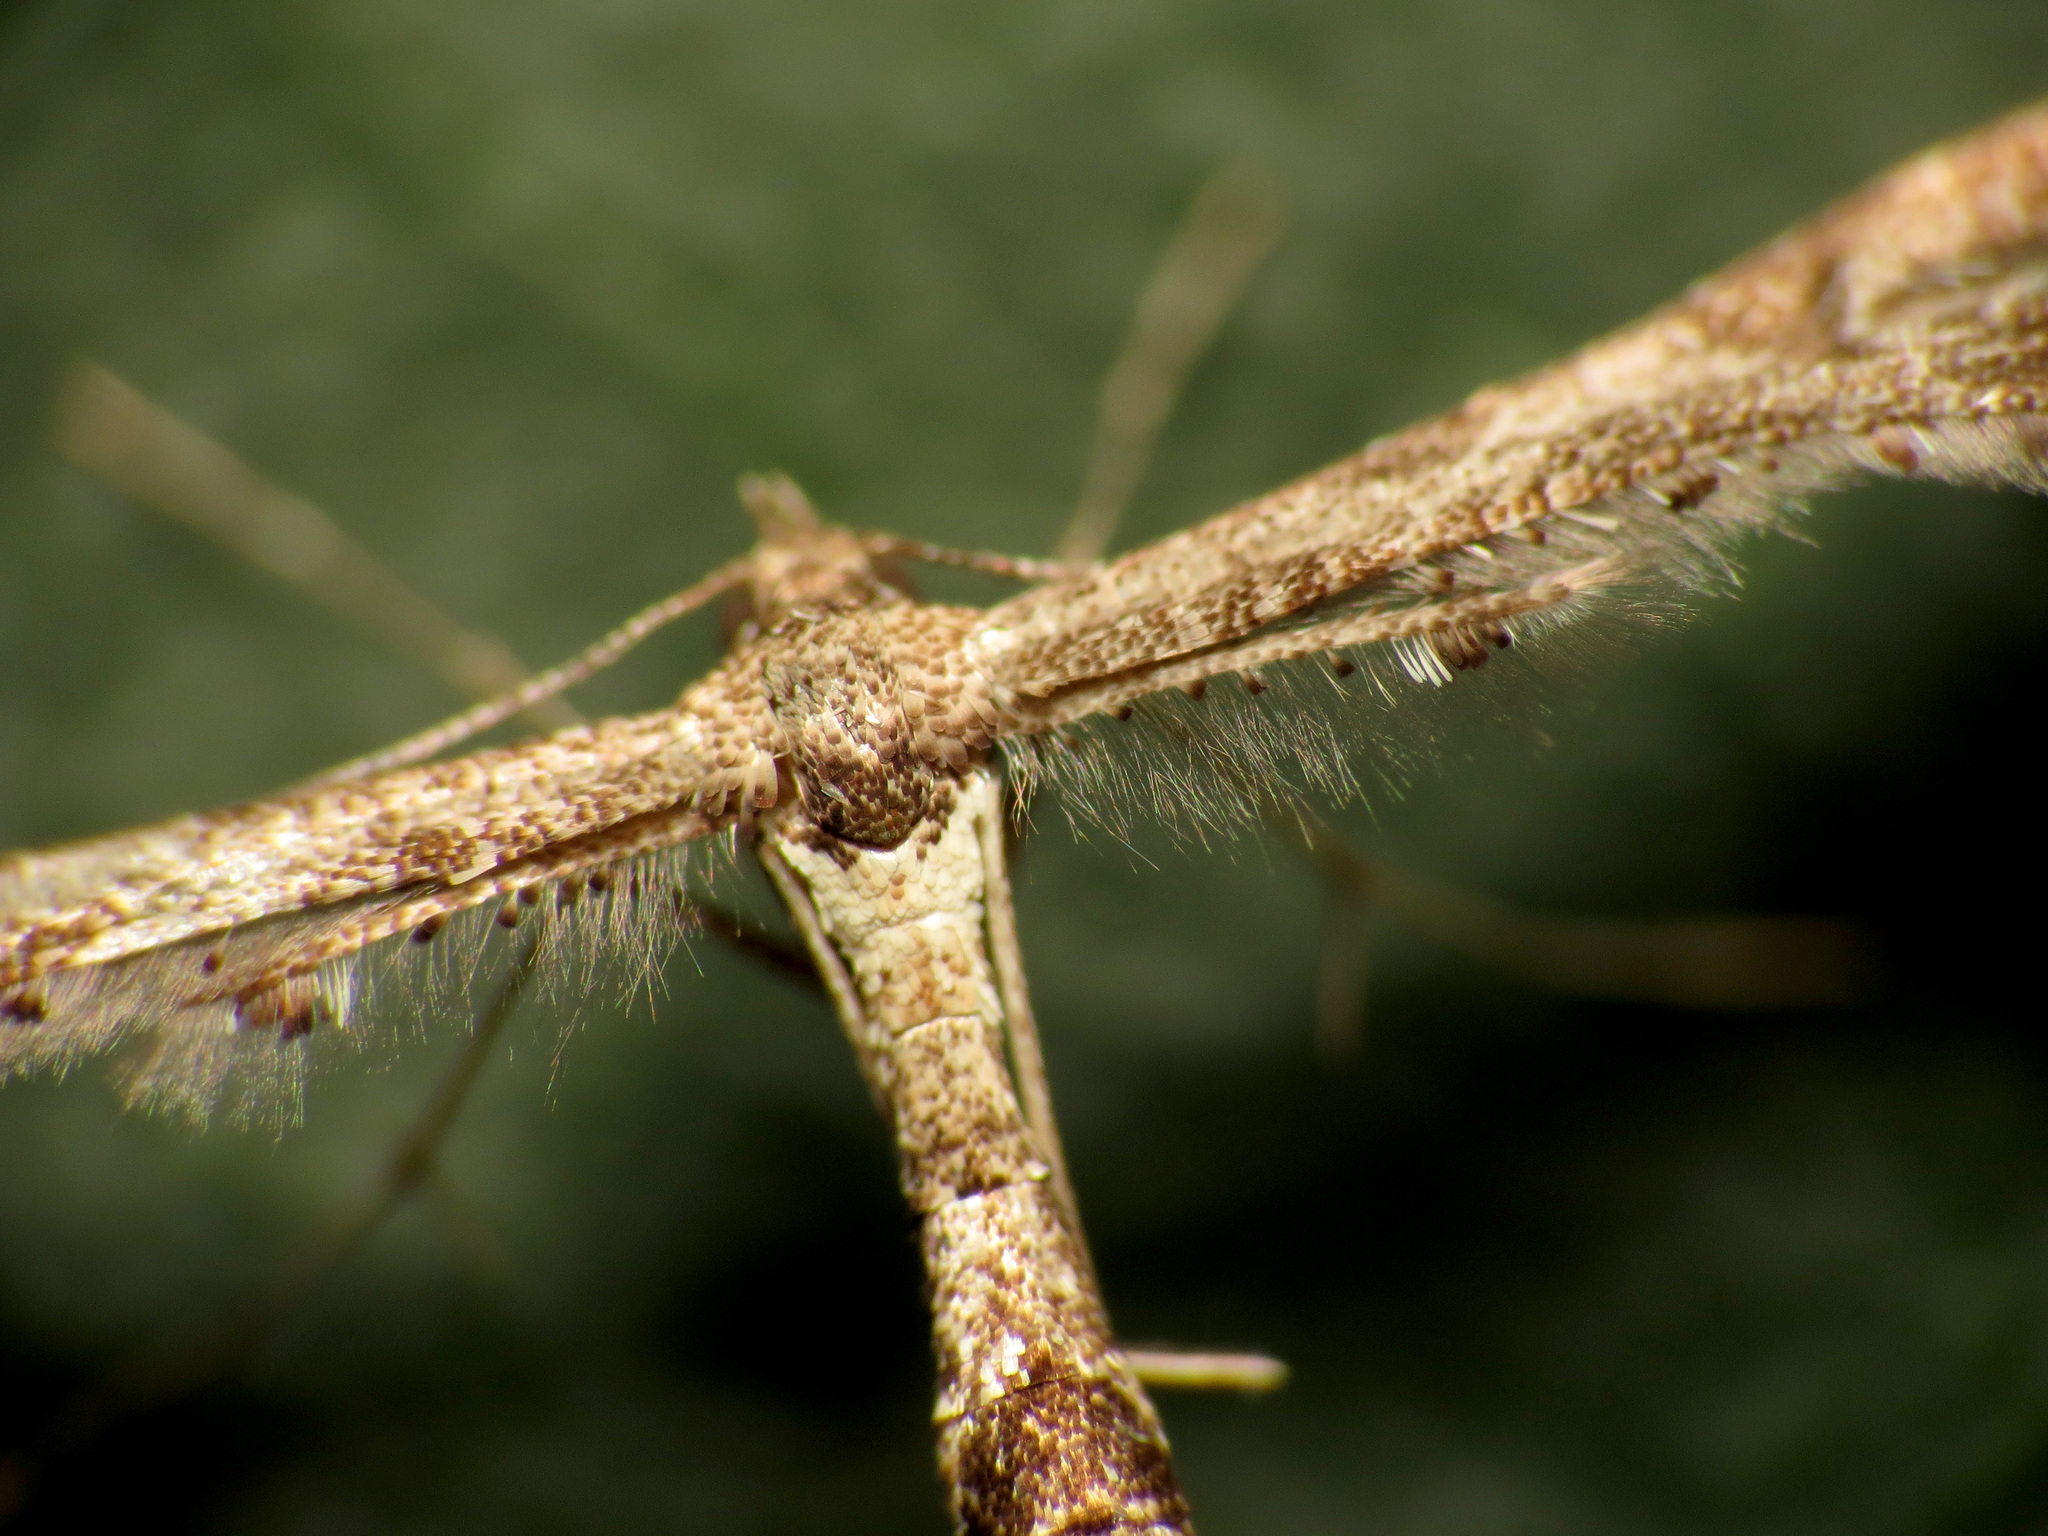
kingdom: Animalia
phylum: Arthropoda
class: Insecta
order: Lepidoptera
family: Pterophoridae
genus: Lantanophaga
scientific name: Lantanophaga pusillidactylus
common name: Moth
